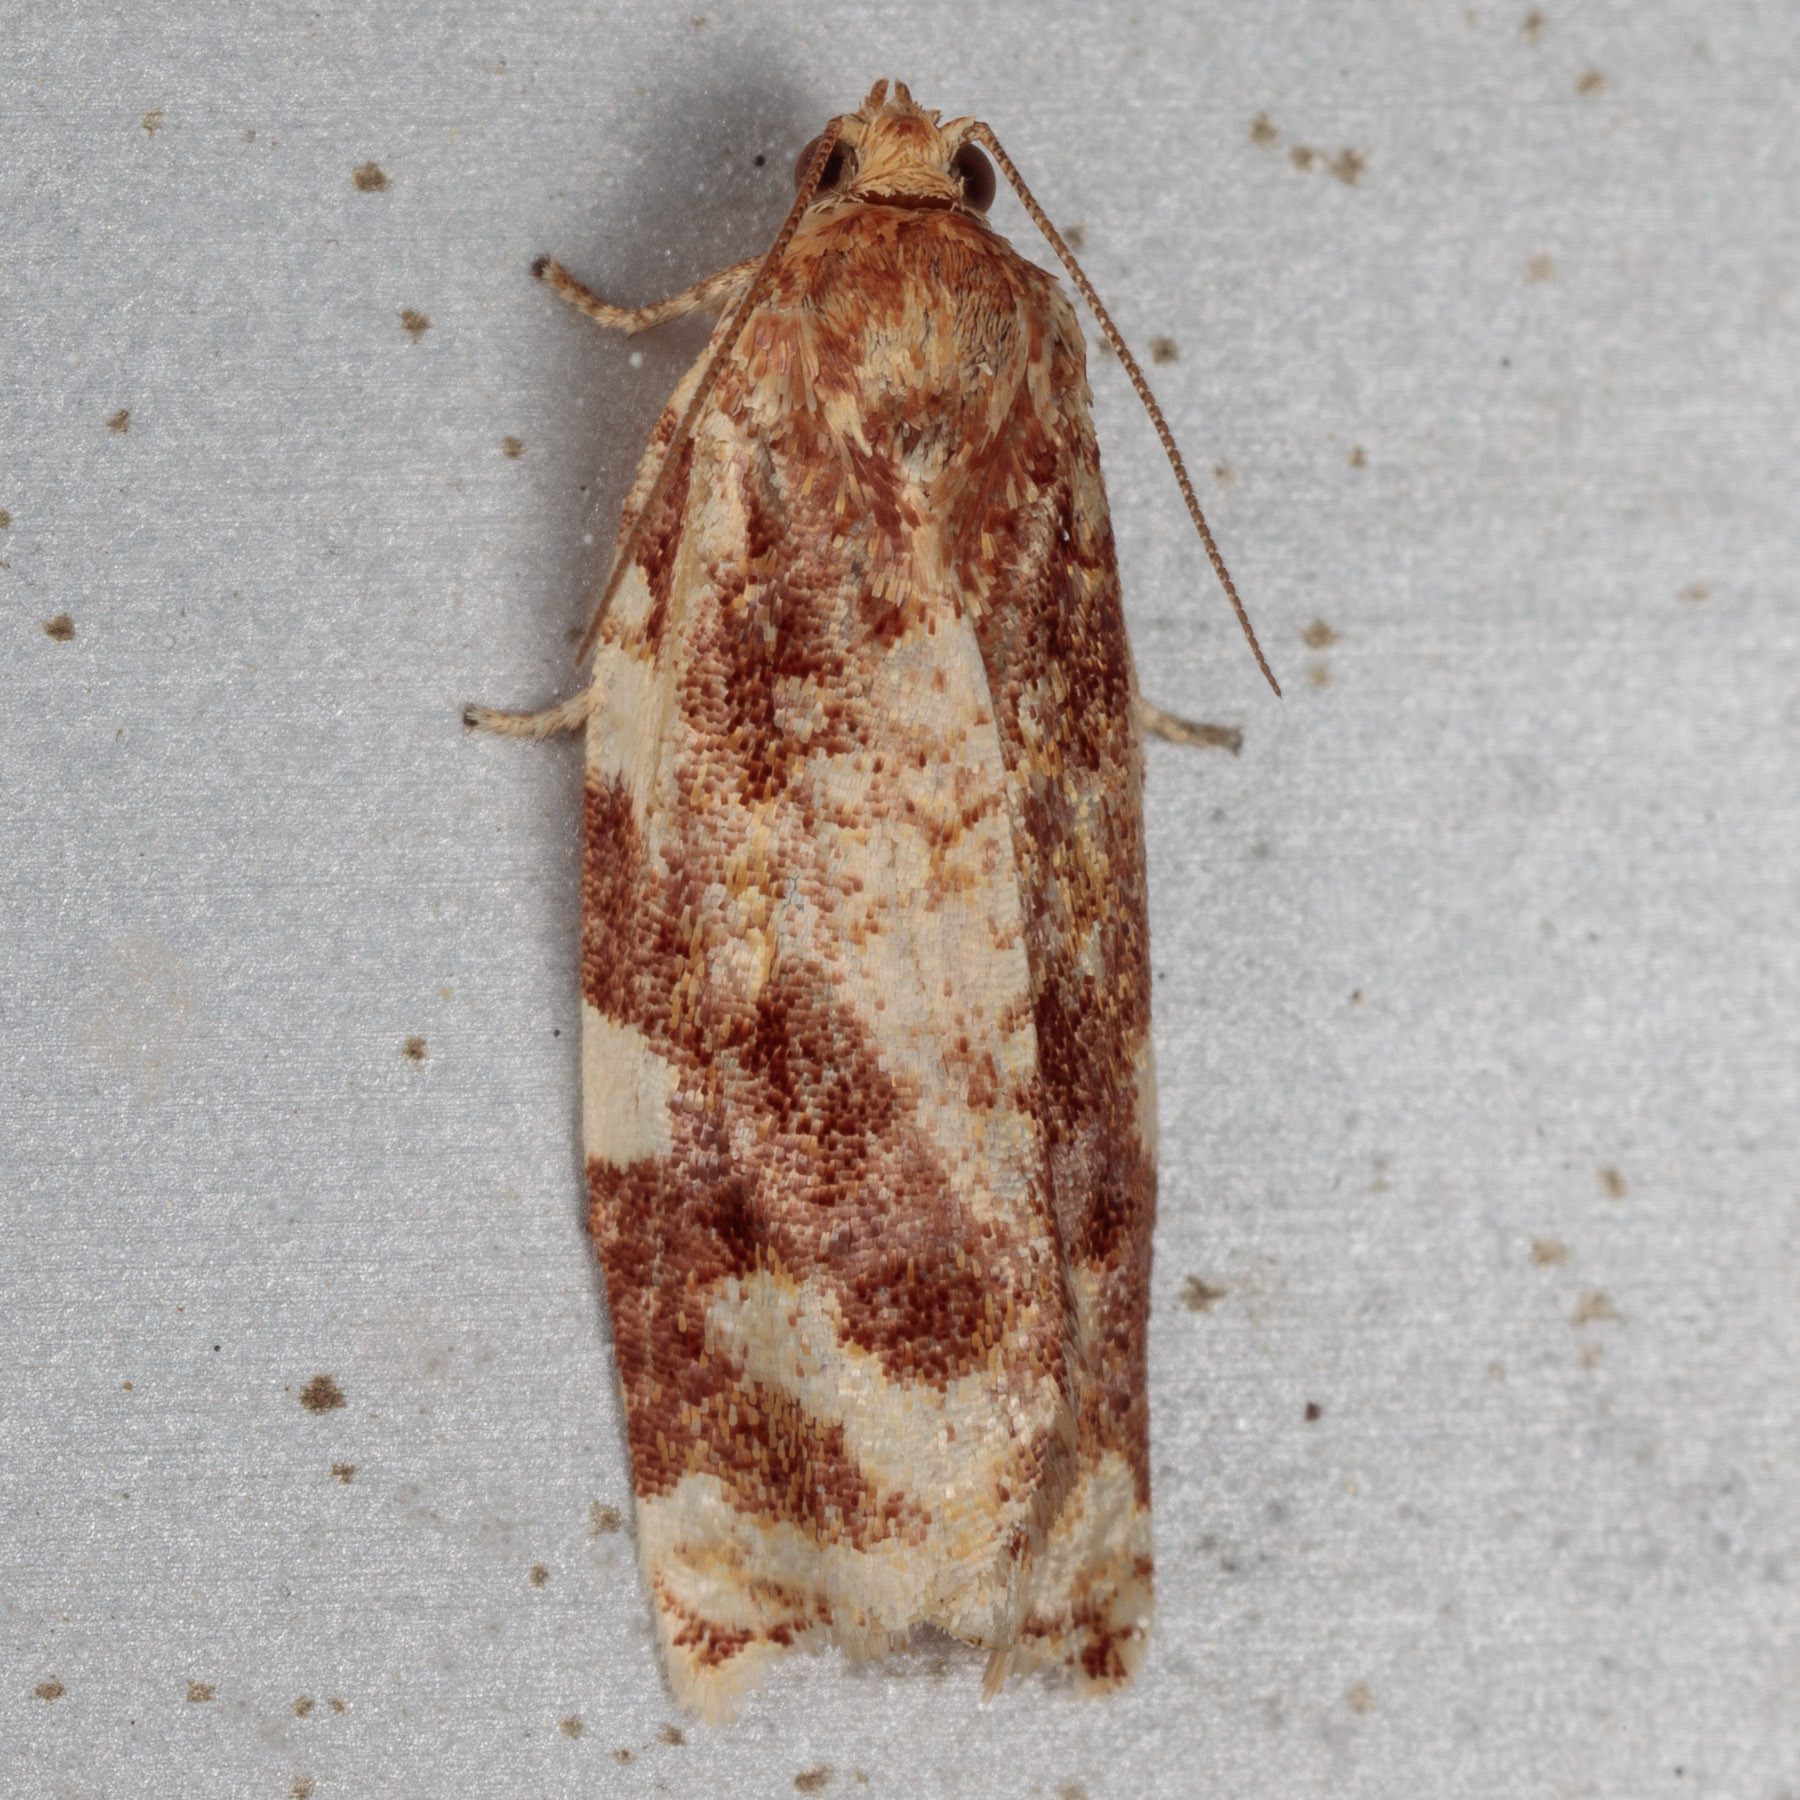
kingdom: Animalia
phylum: Arthropoda
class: Insecta
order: Lepidoptera
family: Tortricidae
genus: Archips
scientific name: Archips argyrospila
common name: Fruit-tree leafroller moth
